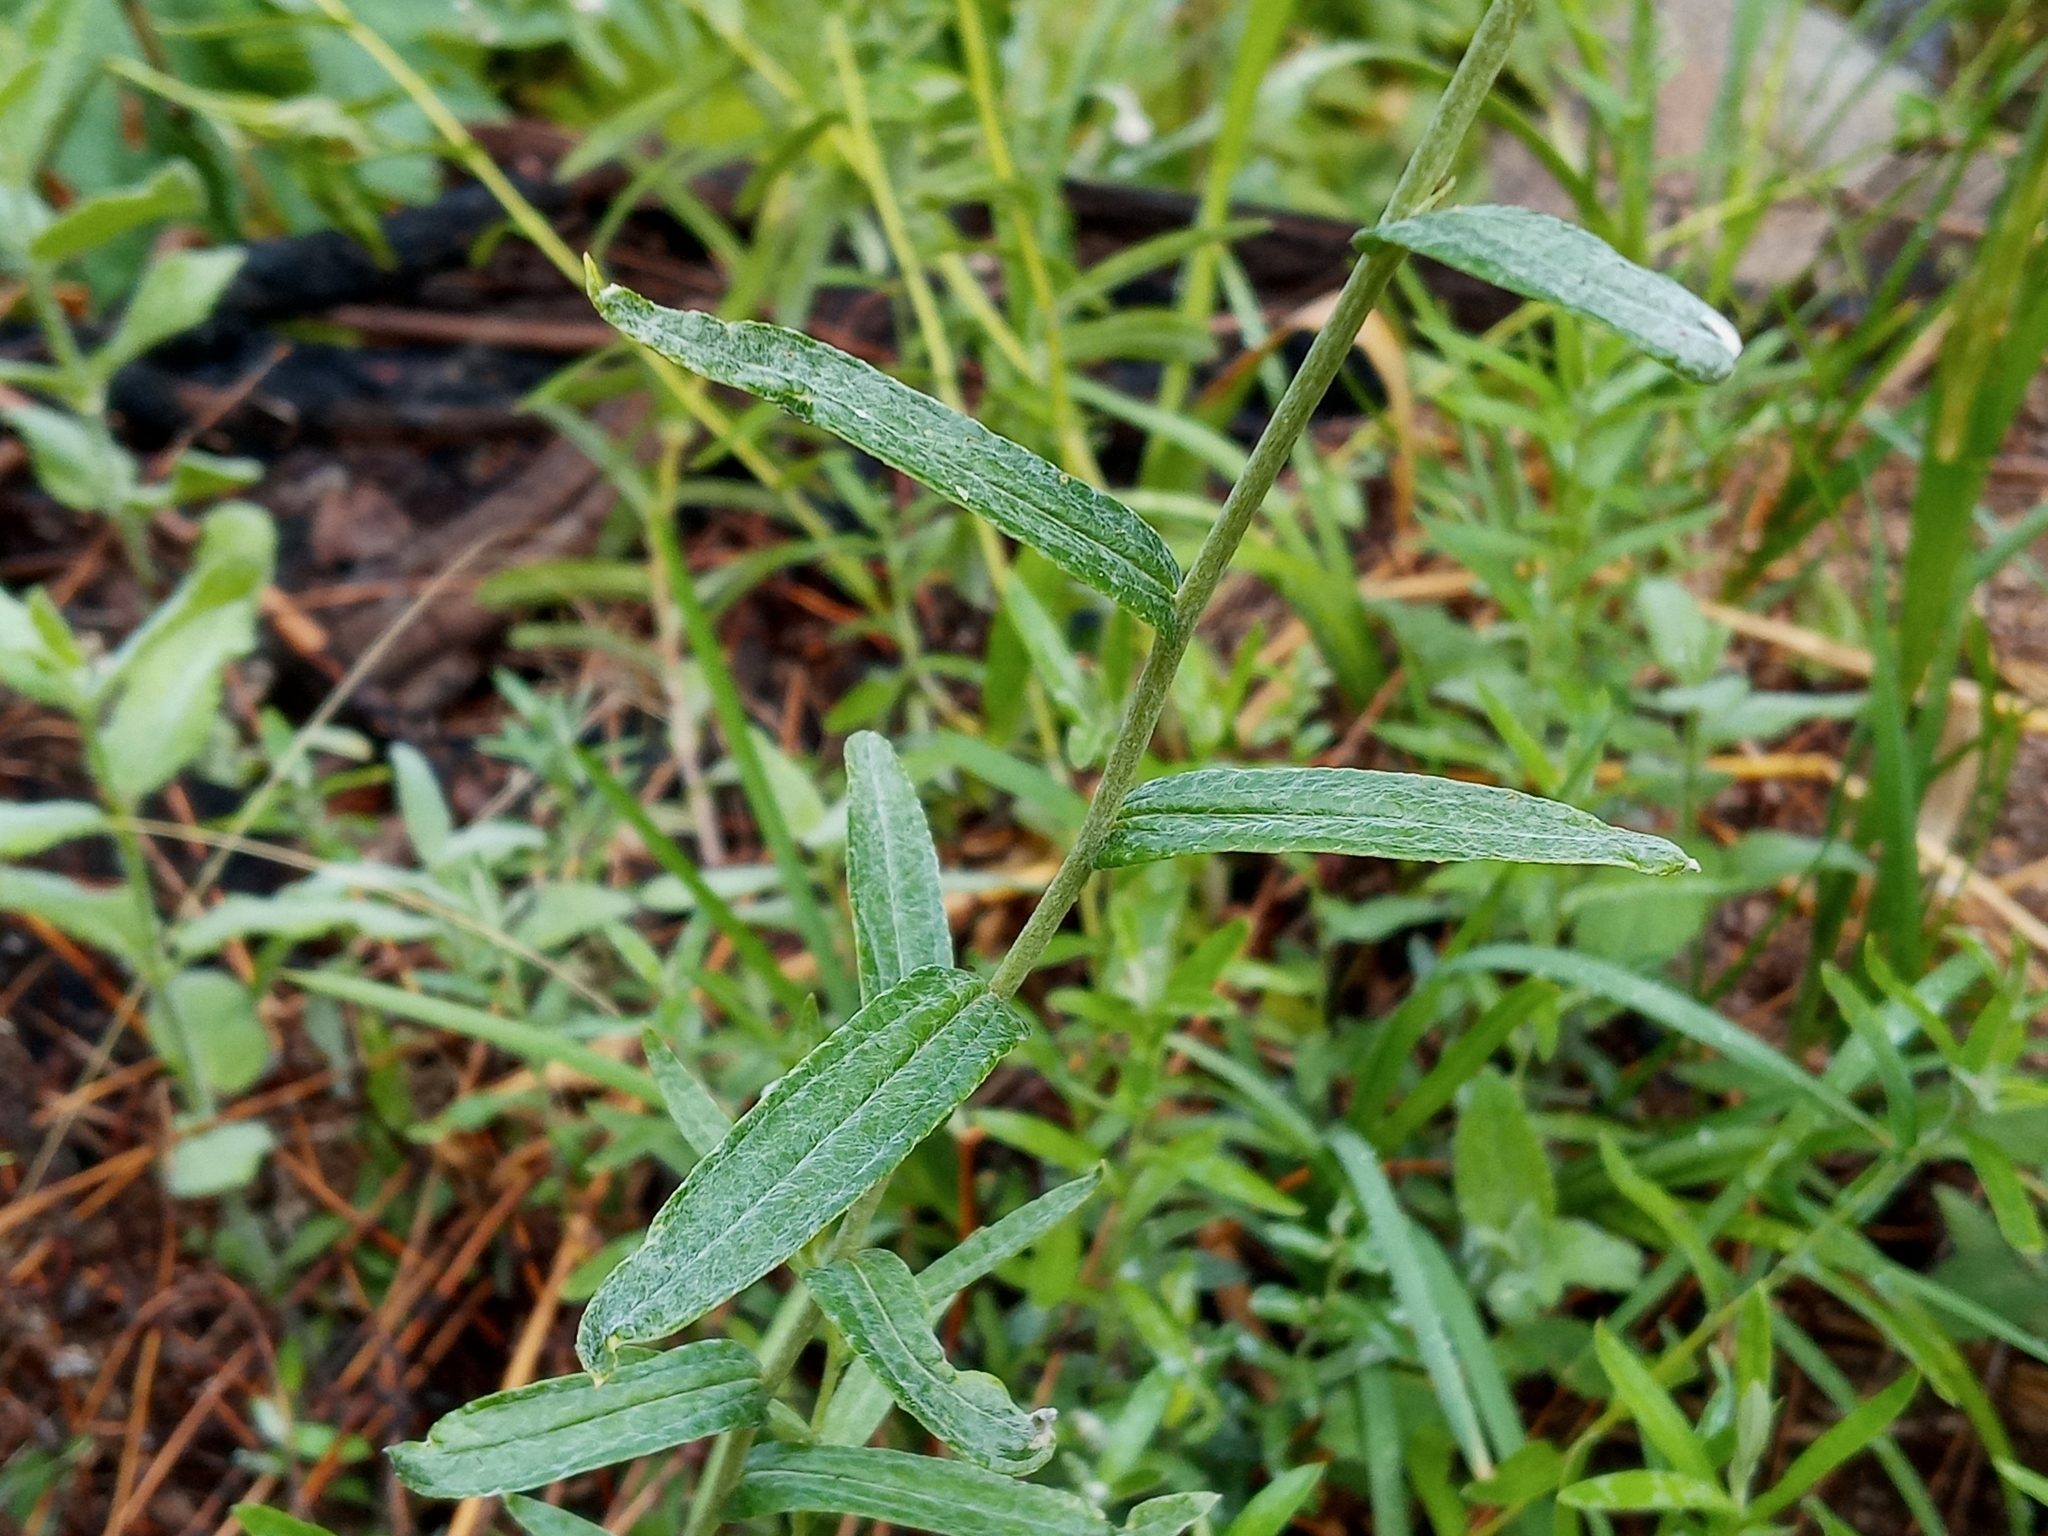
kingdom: Plantae
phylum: Tracheophyta
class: Magnoliopsida
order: Asterales
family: Asteraceae
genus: Anaphalis
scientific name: Anaphalis margaritacea
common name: Pearly everlasting
